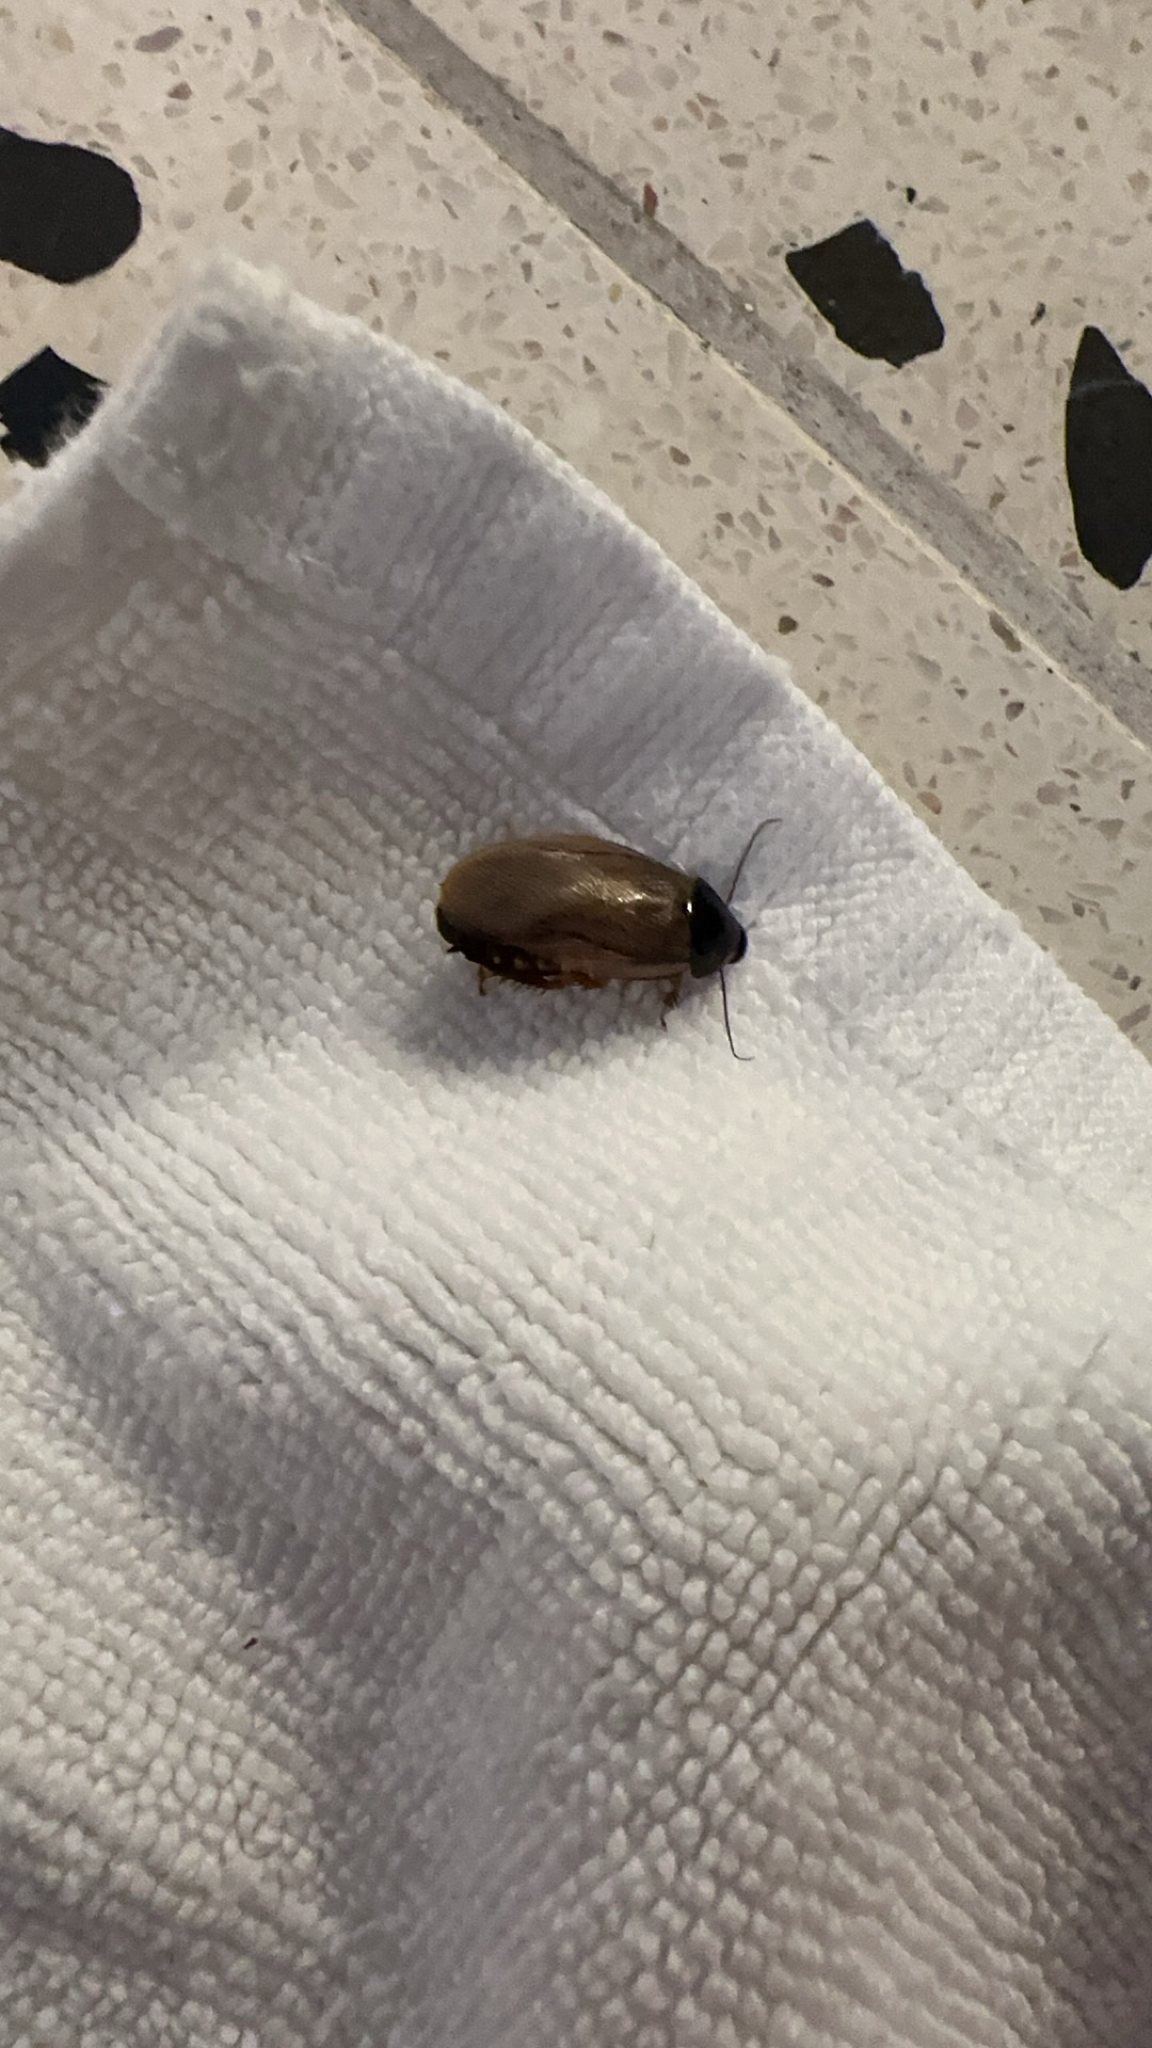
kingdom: Animalia
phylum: Arthropoda
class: Insecta
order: Blattodea
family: Blaberidae
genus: Pycnoscelus
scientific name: Pycnoscelus surinamensis
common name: Surinam cockroach
